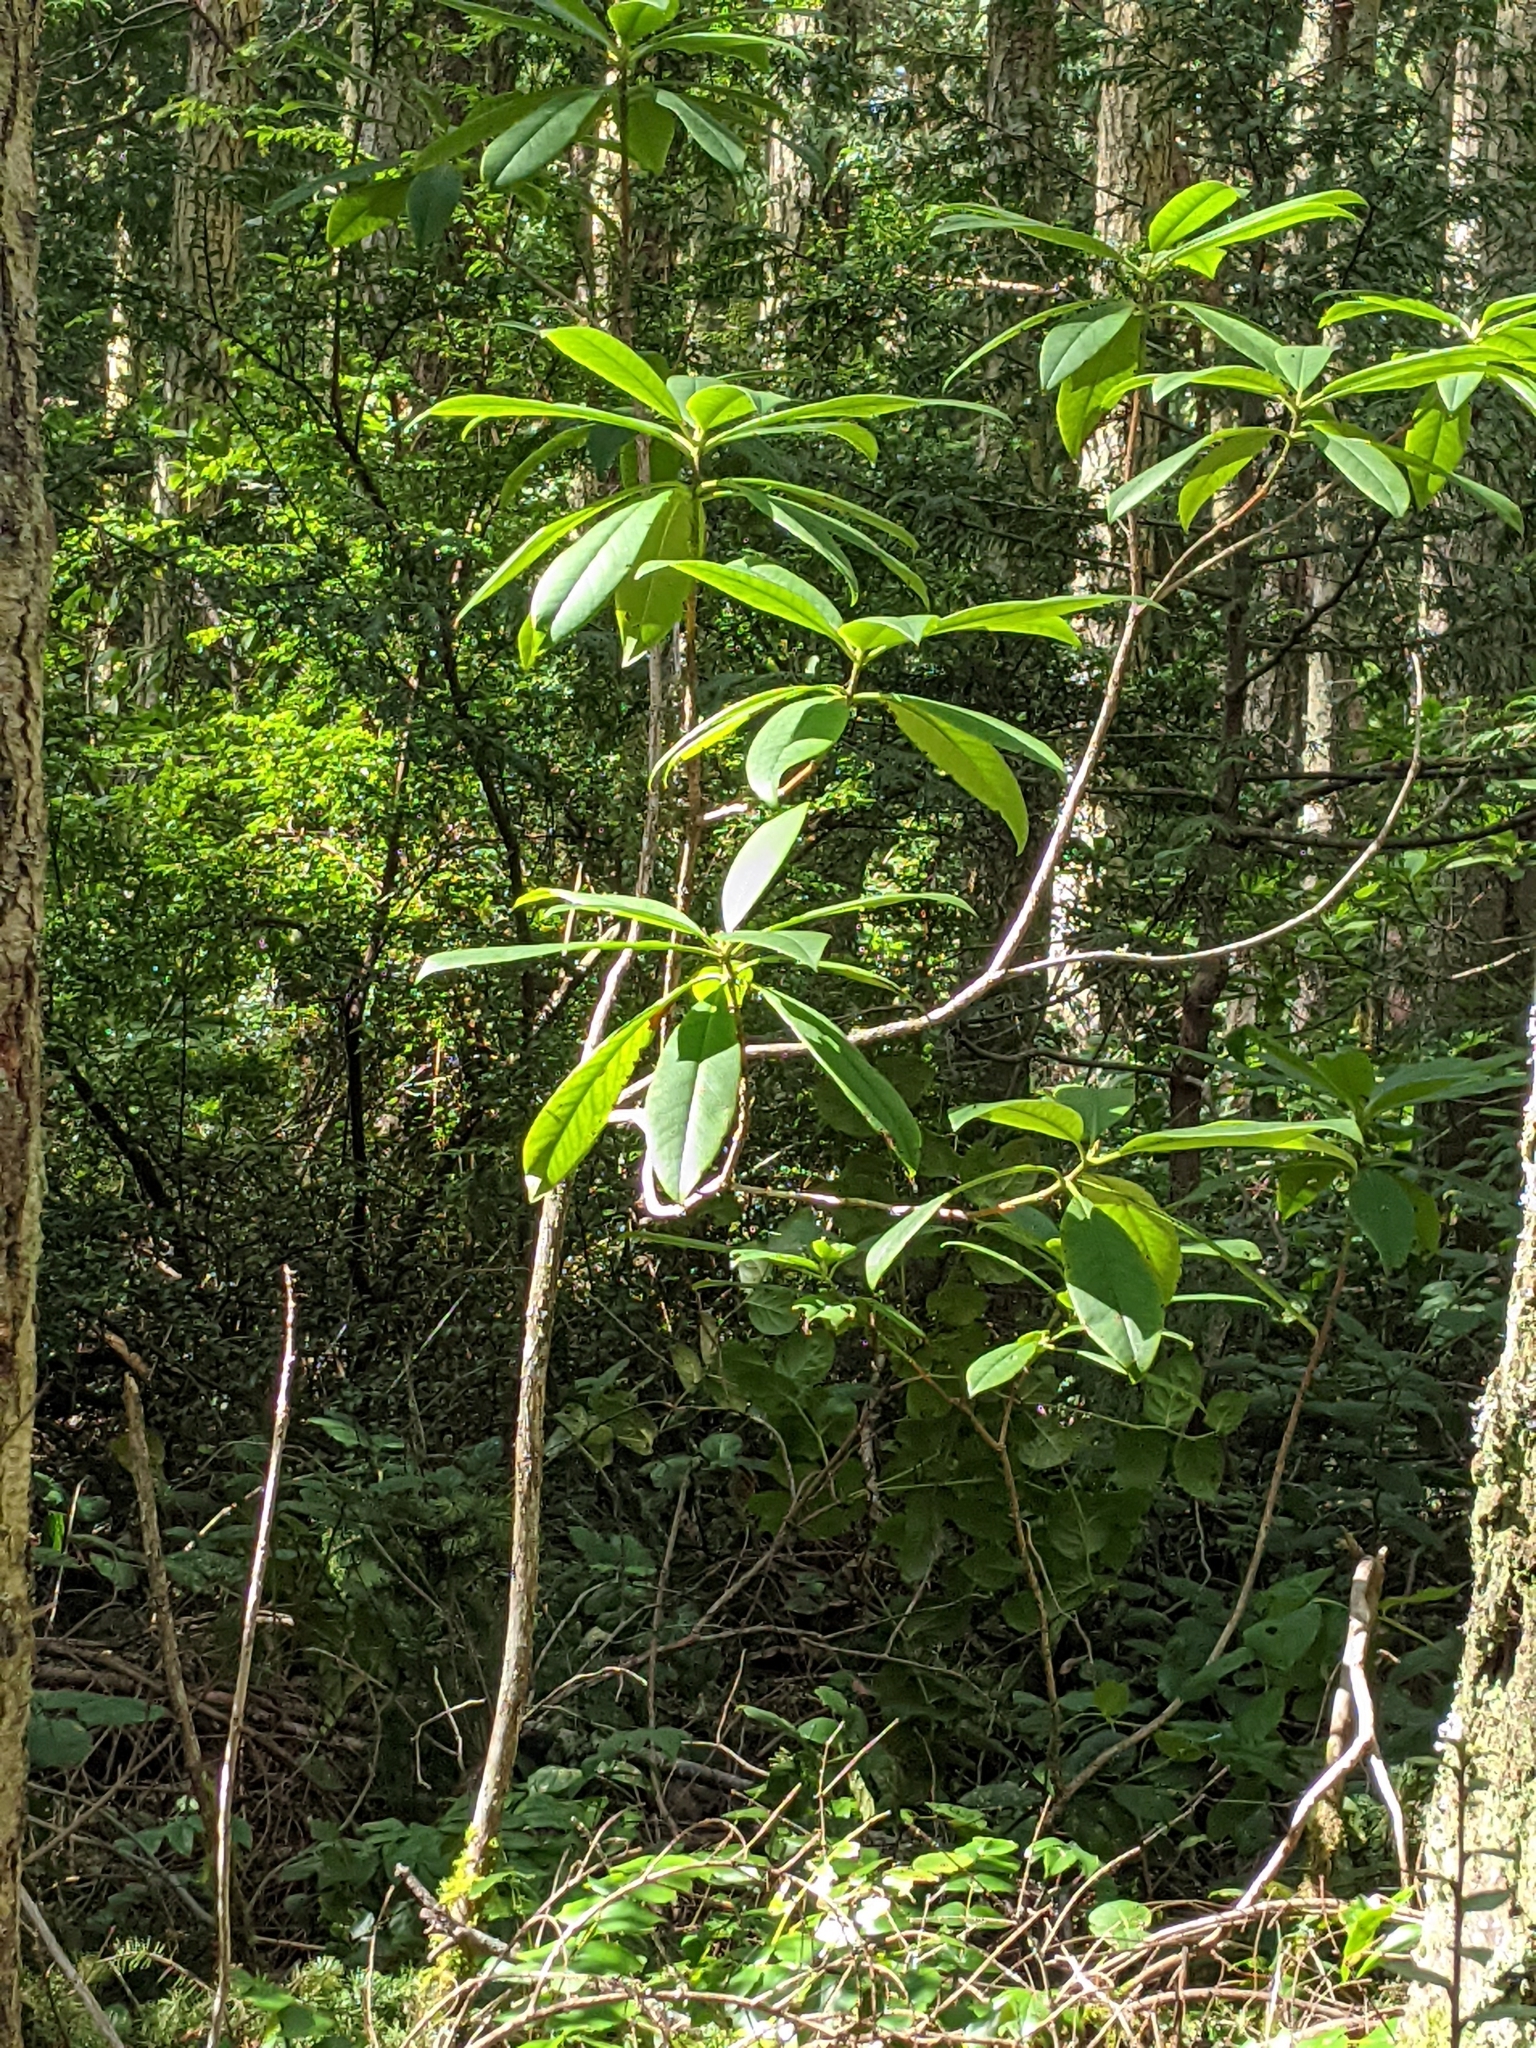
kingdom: Plantae
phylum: Tracheophyta
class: Magnoliopsida
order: Ericales
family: Ericaceae
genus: Rhododendron
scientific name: Rhododendron macrophyllum
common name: California rose bay
